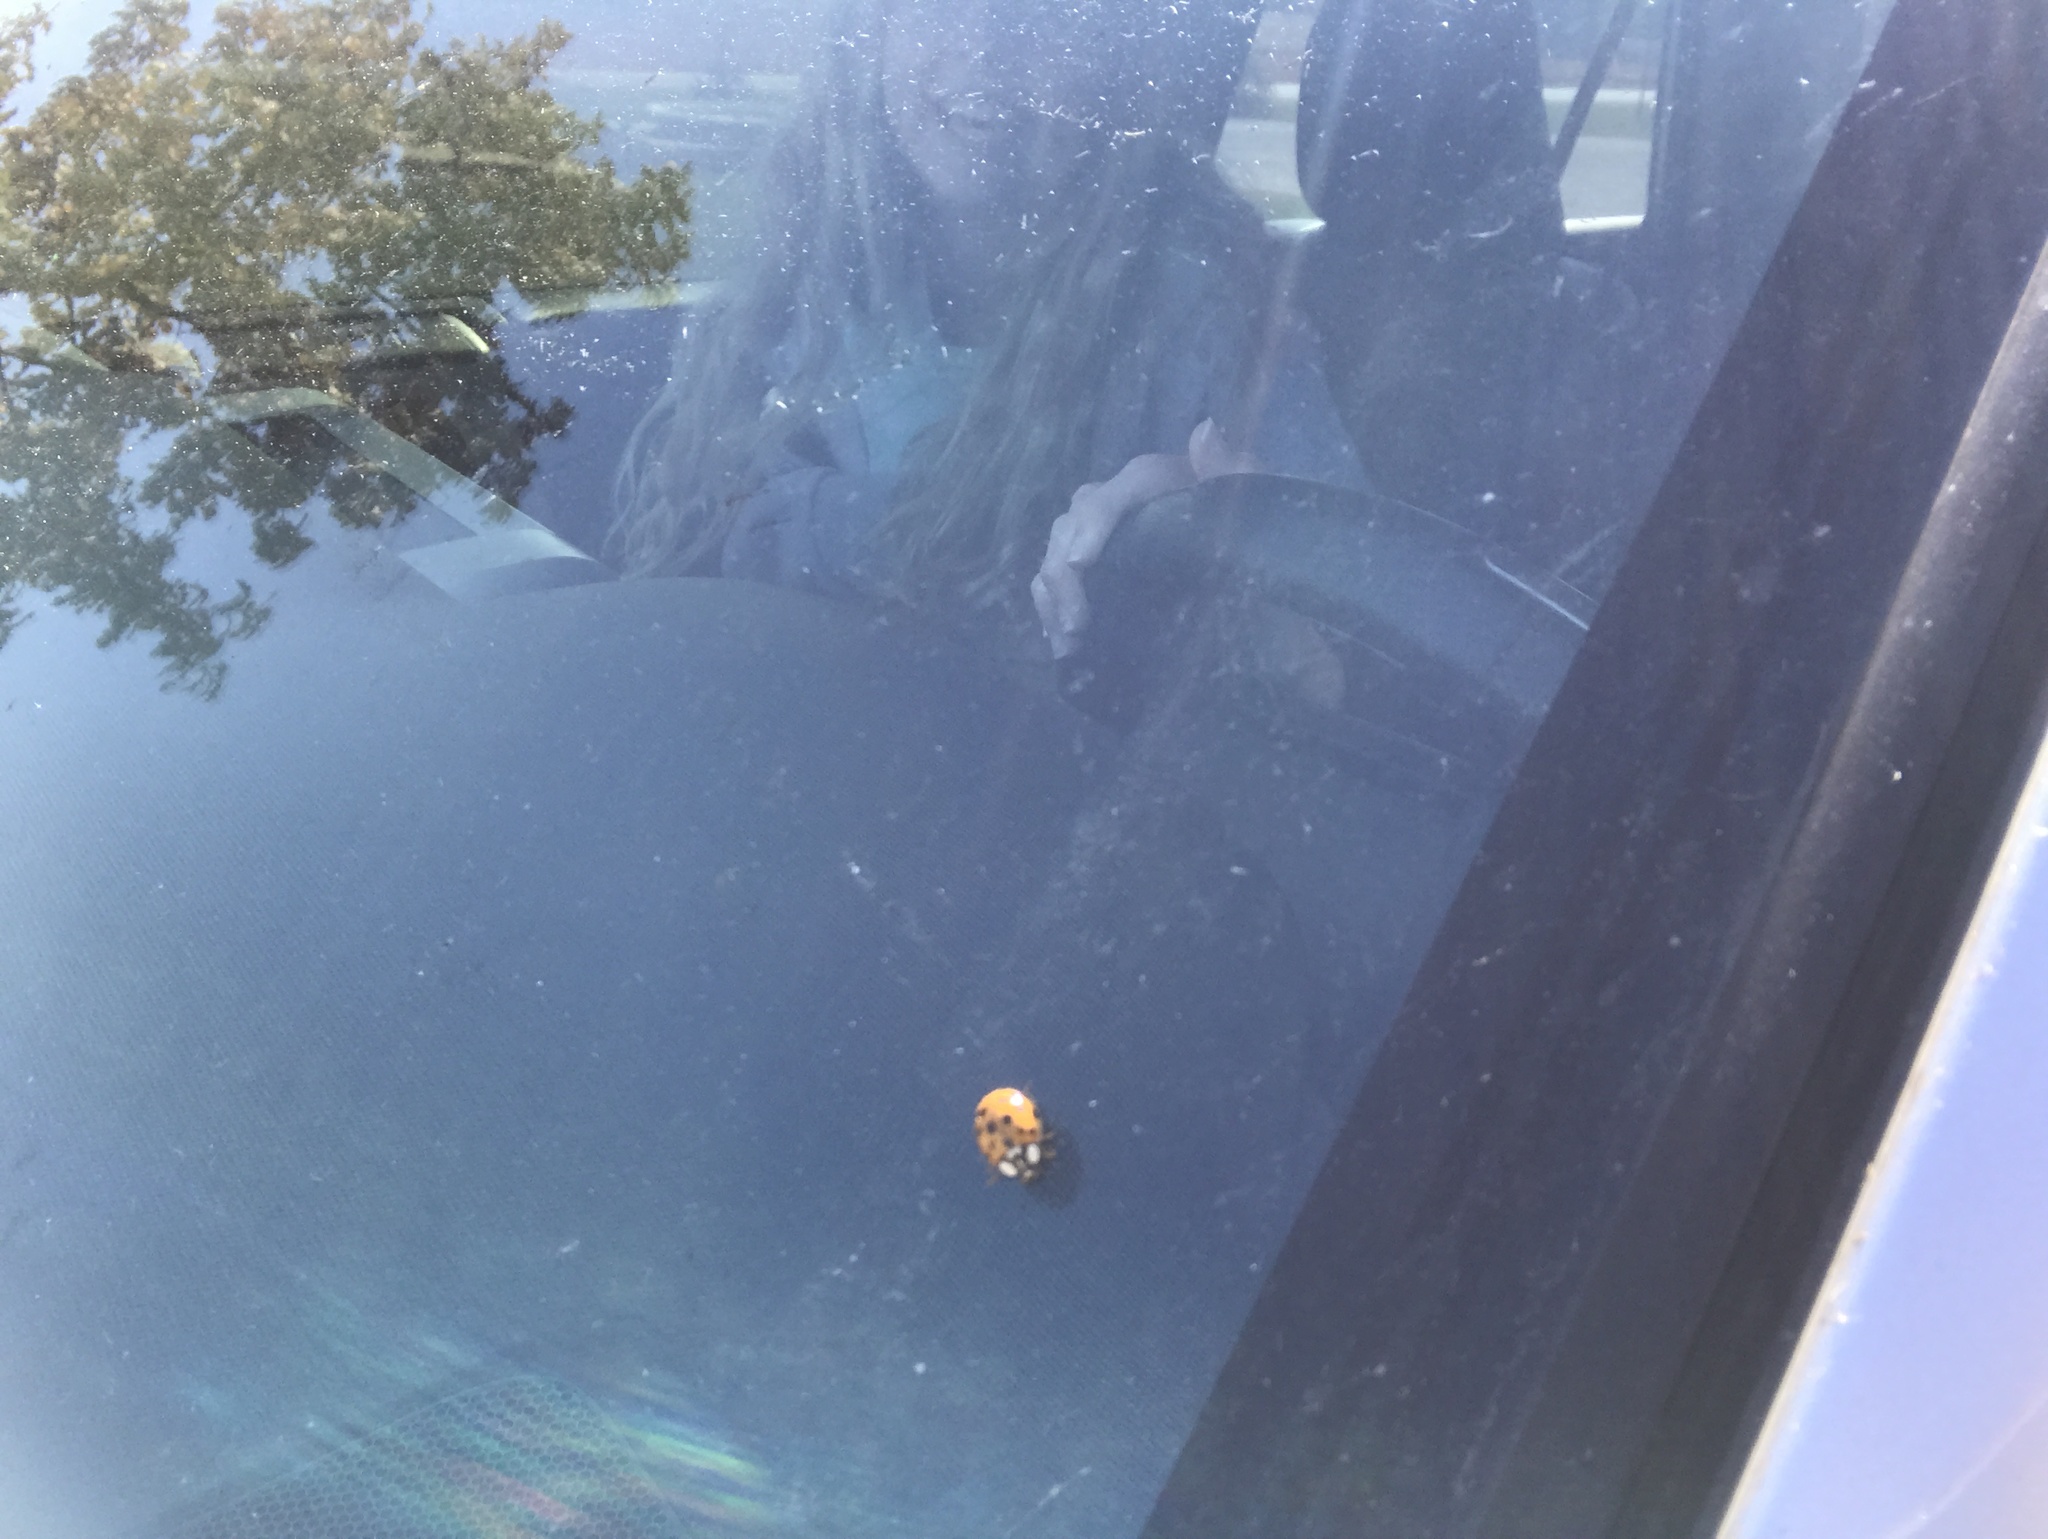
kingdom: Animalia
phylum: Arthropoda
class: Insecta
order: Coleoptera
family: Coccinellidae
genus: Harmonia
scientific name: Harmonia axyridis
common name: Harlequin ladybird
